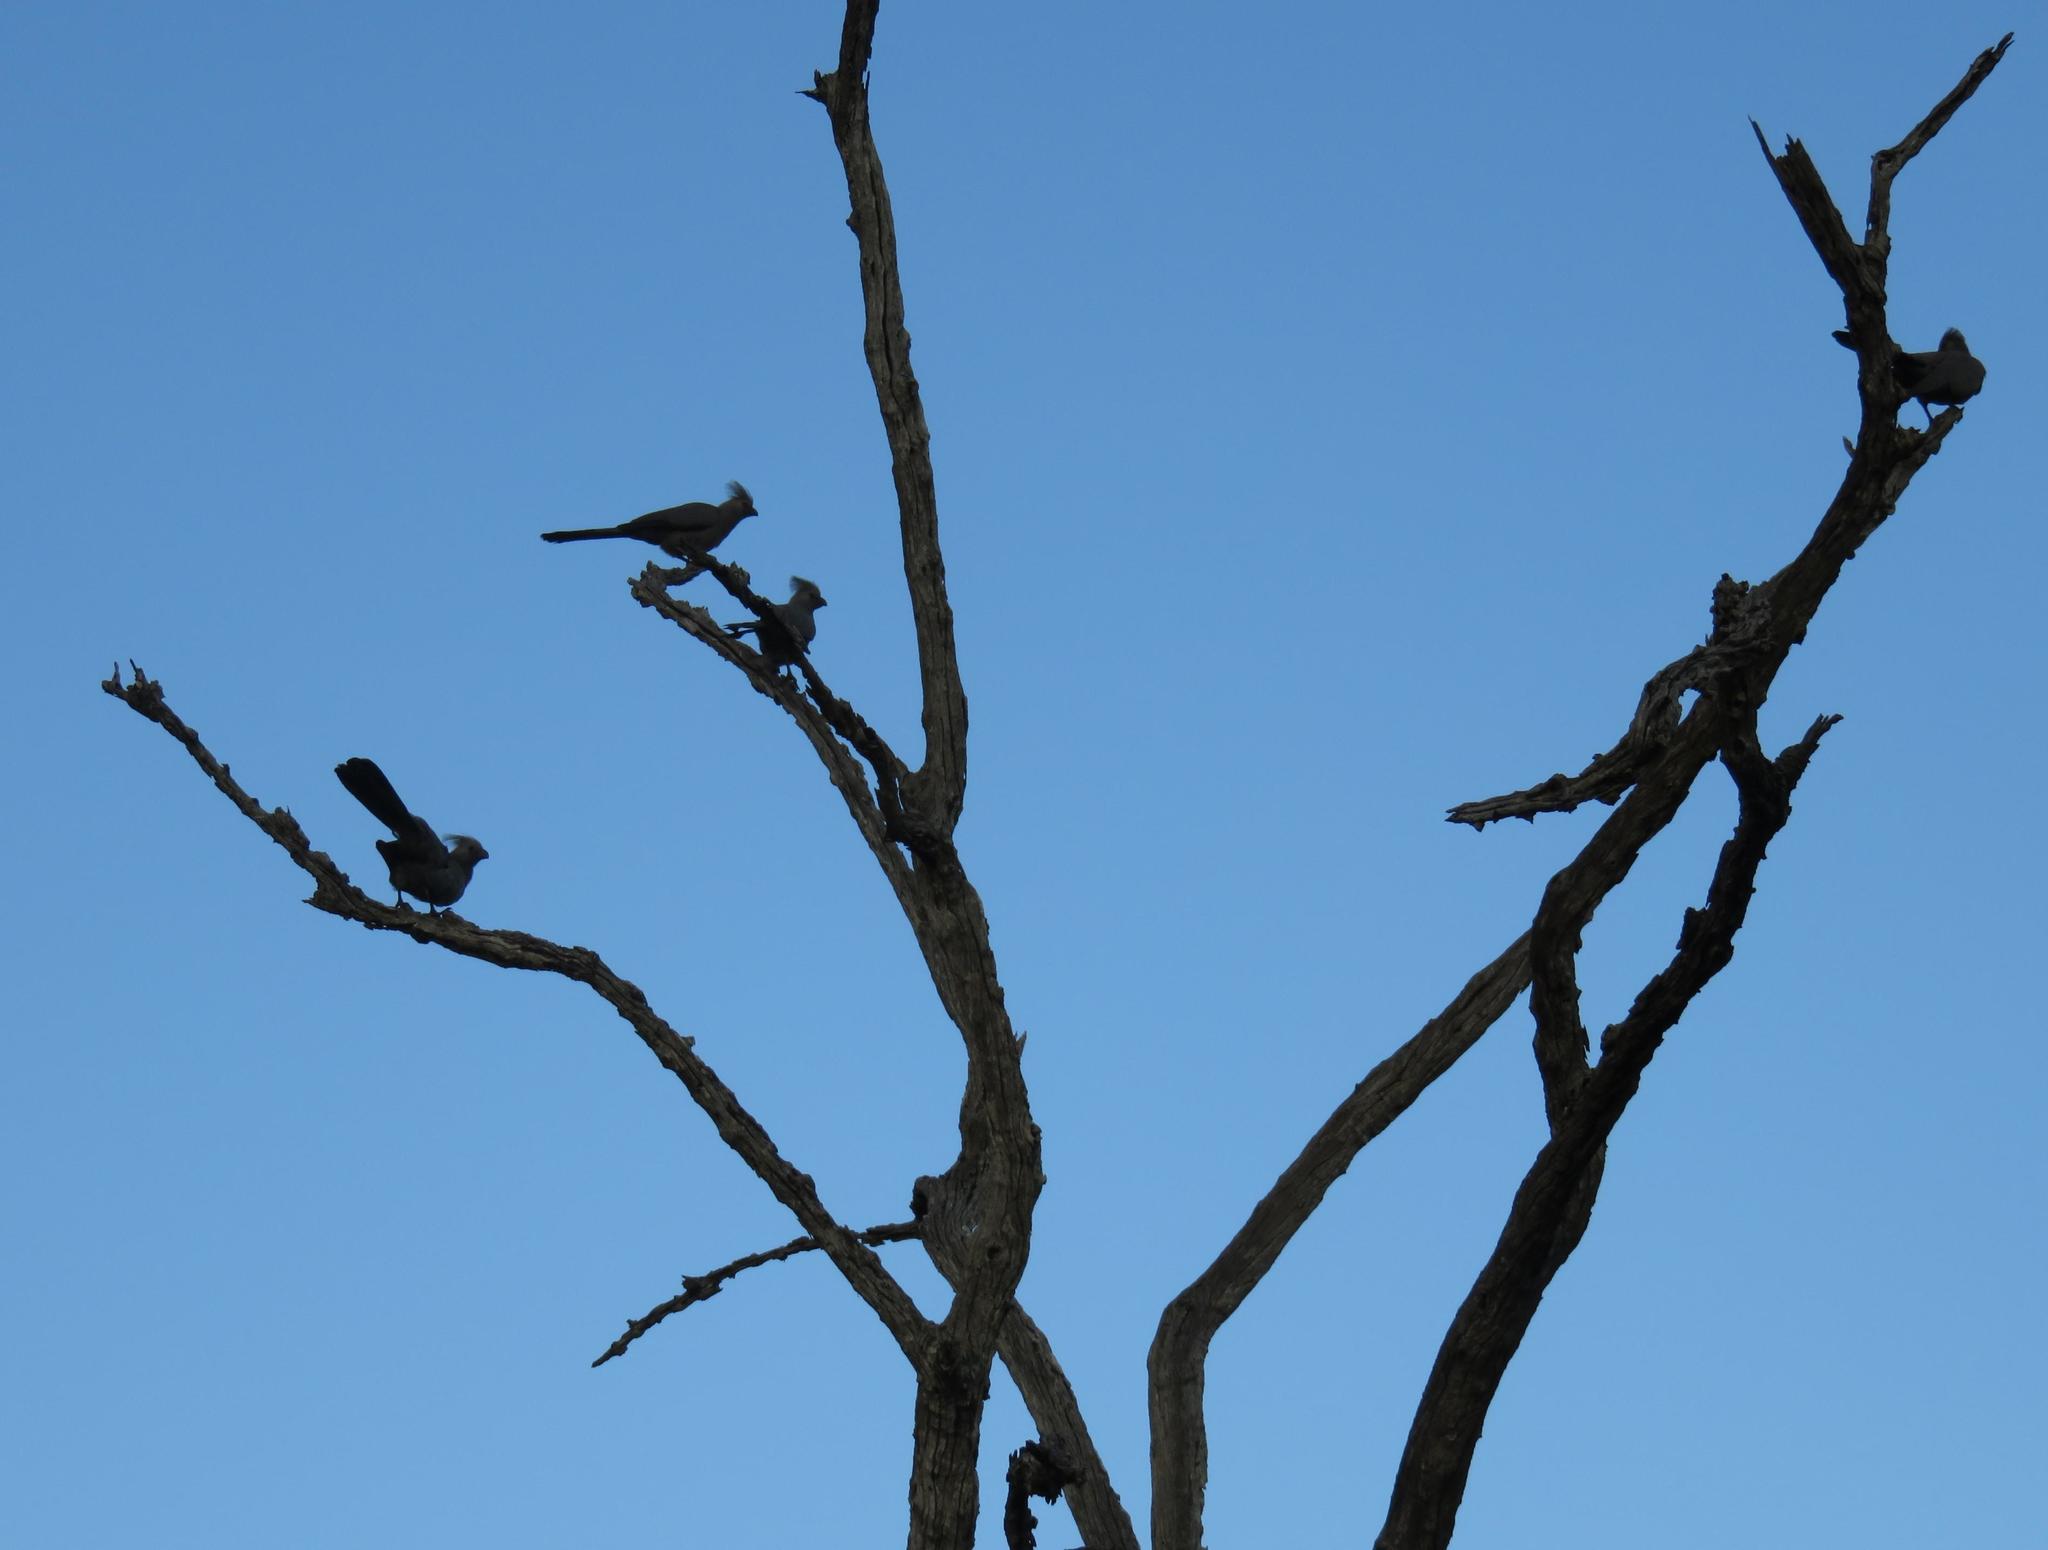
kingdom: Animalia
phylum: Chordata
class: Aves
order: Musophagiformes
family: Musophagidae
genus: Corythaixoides
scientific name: Corythaixoides concolor
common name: Grey go-away-bird
